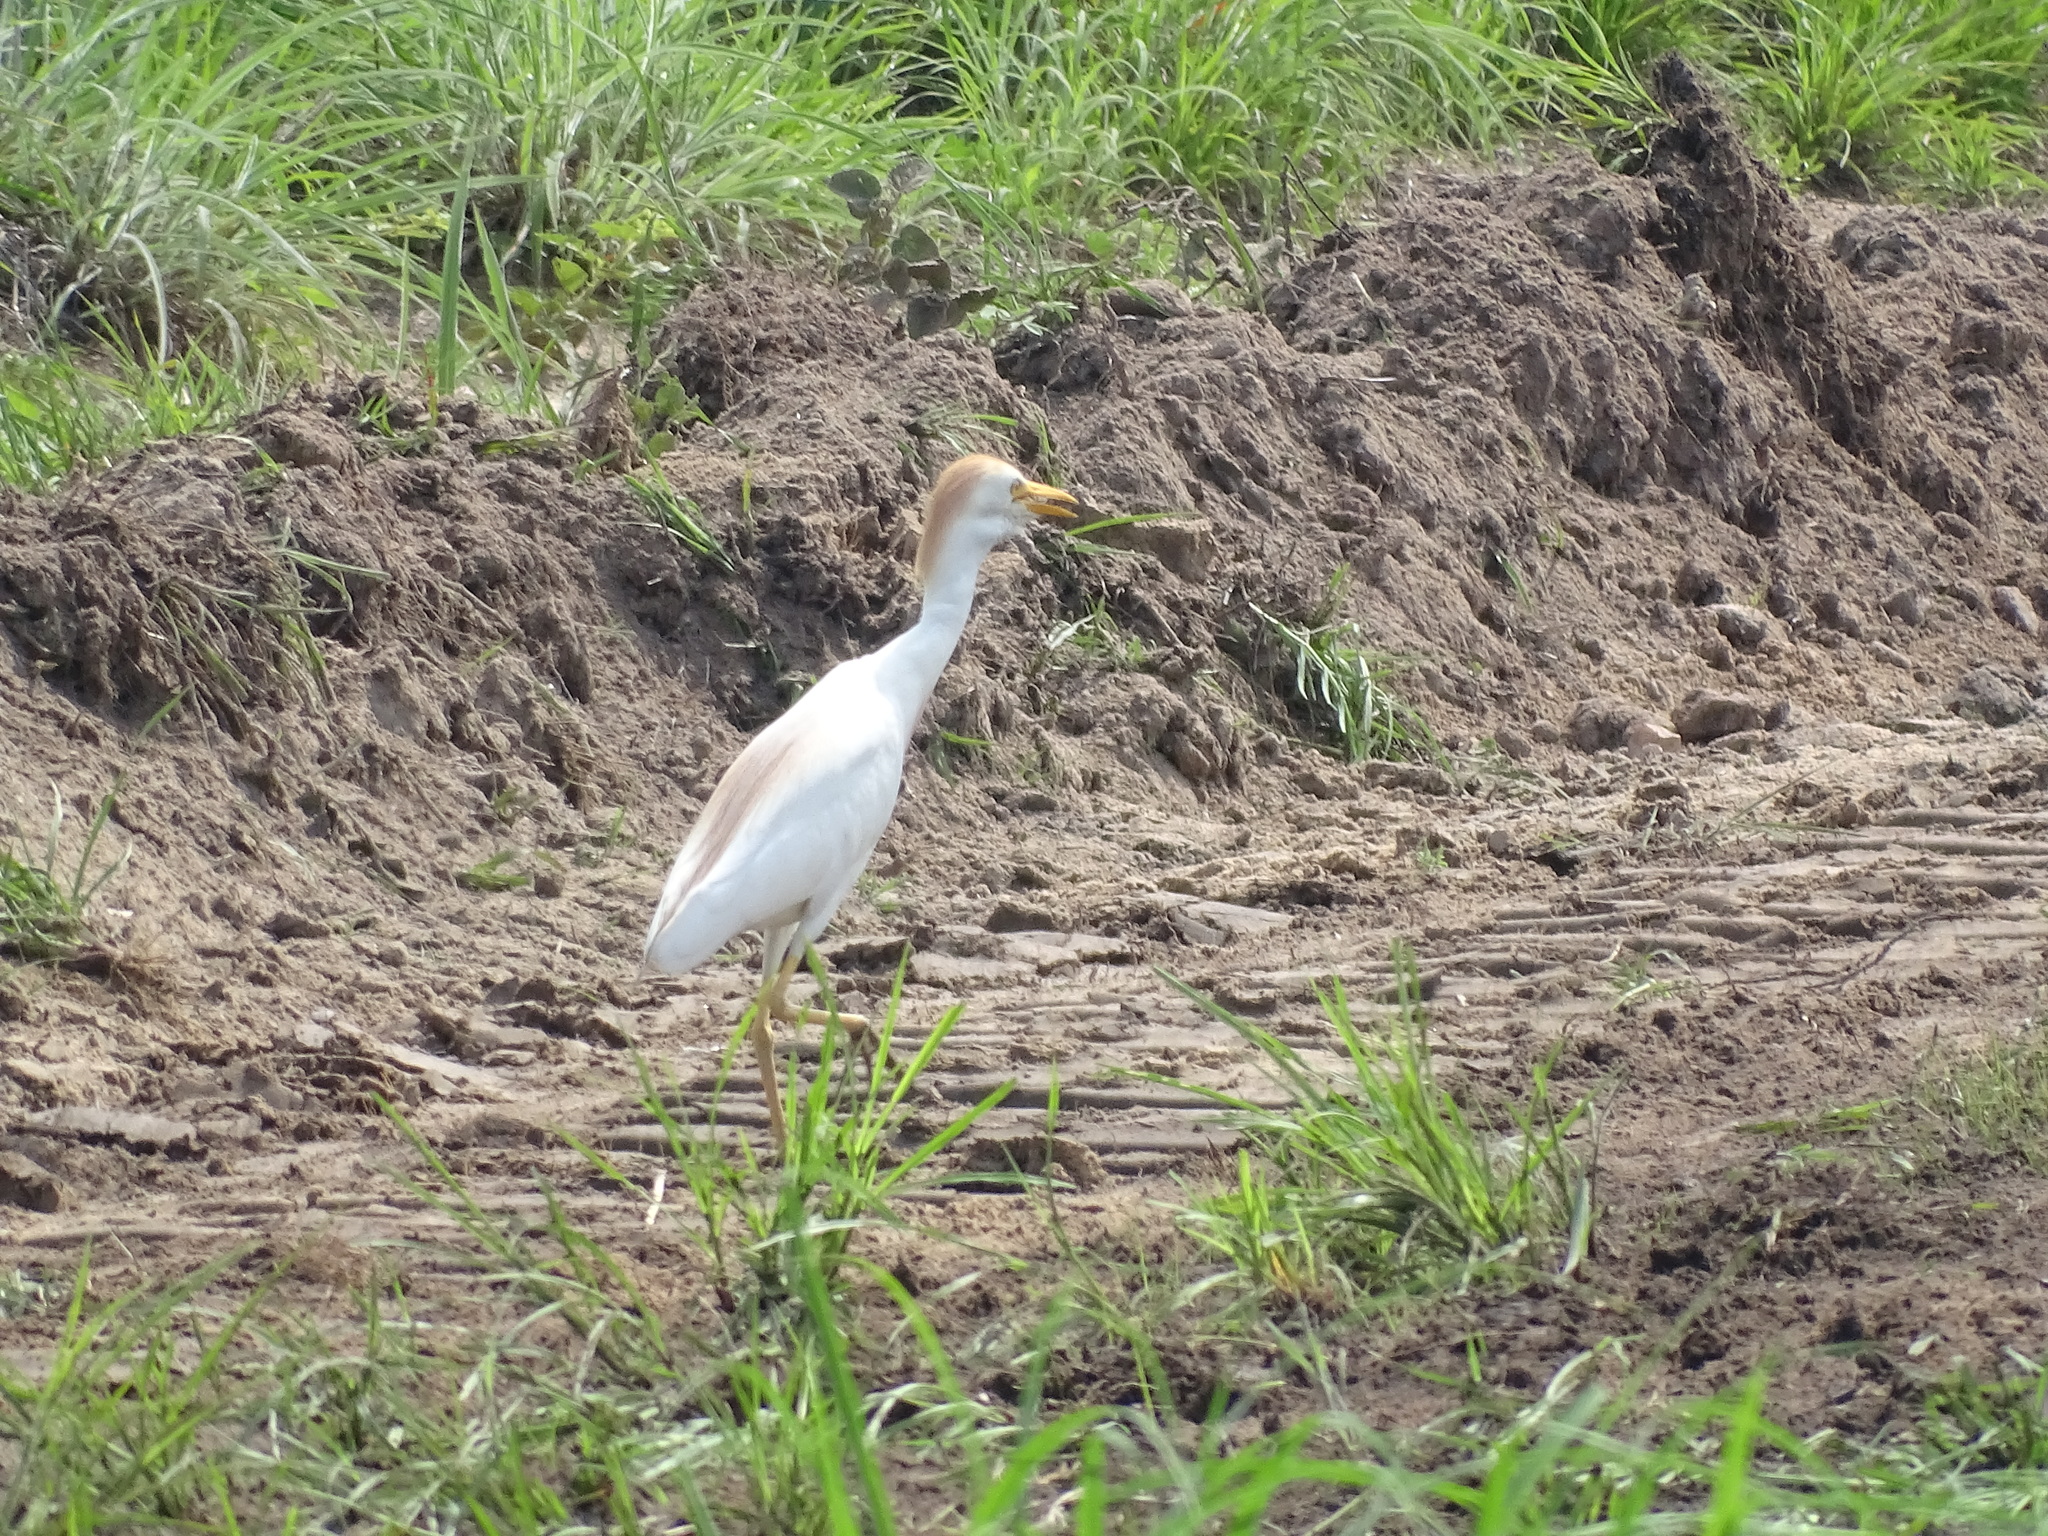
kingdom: Animalia
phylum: Chordata
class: Aves
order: Pelecaniformes
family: Ardeidae
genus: Bubulcus
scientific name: Bubulcus ibis
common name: Cattle egret
